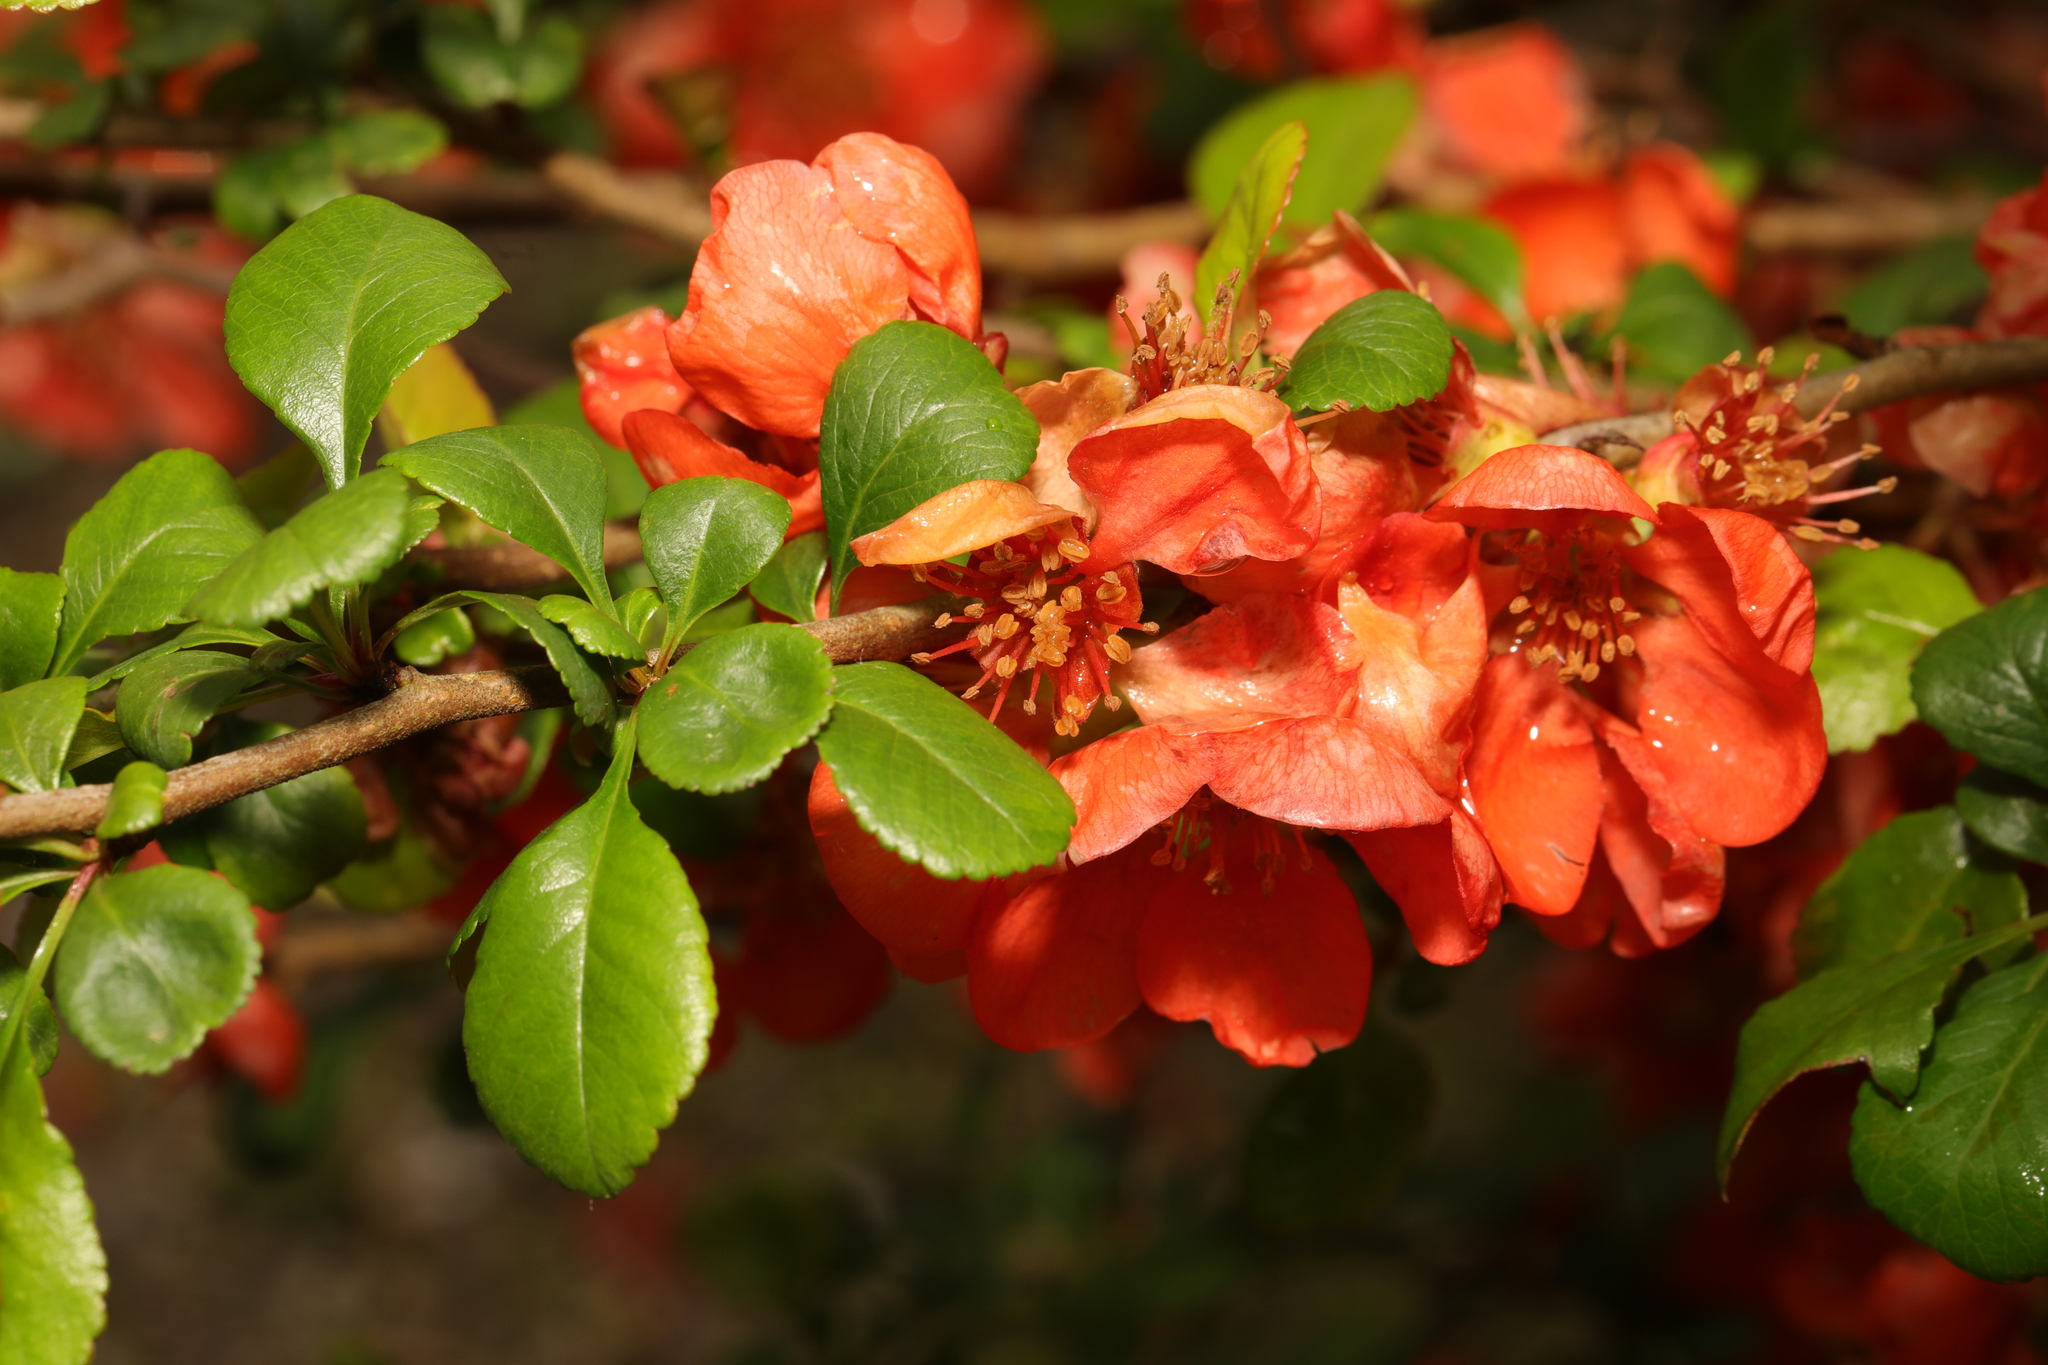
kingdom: Plantae
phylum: Tracheophyta
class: Magnoliopsida
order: Rosales
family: Rosaceae
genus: Chaenomeles
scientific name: Chaenomeles japonica
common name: Japanese quince
